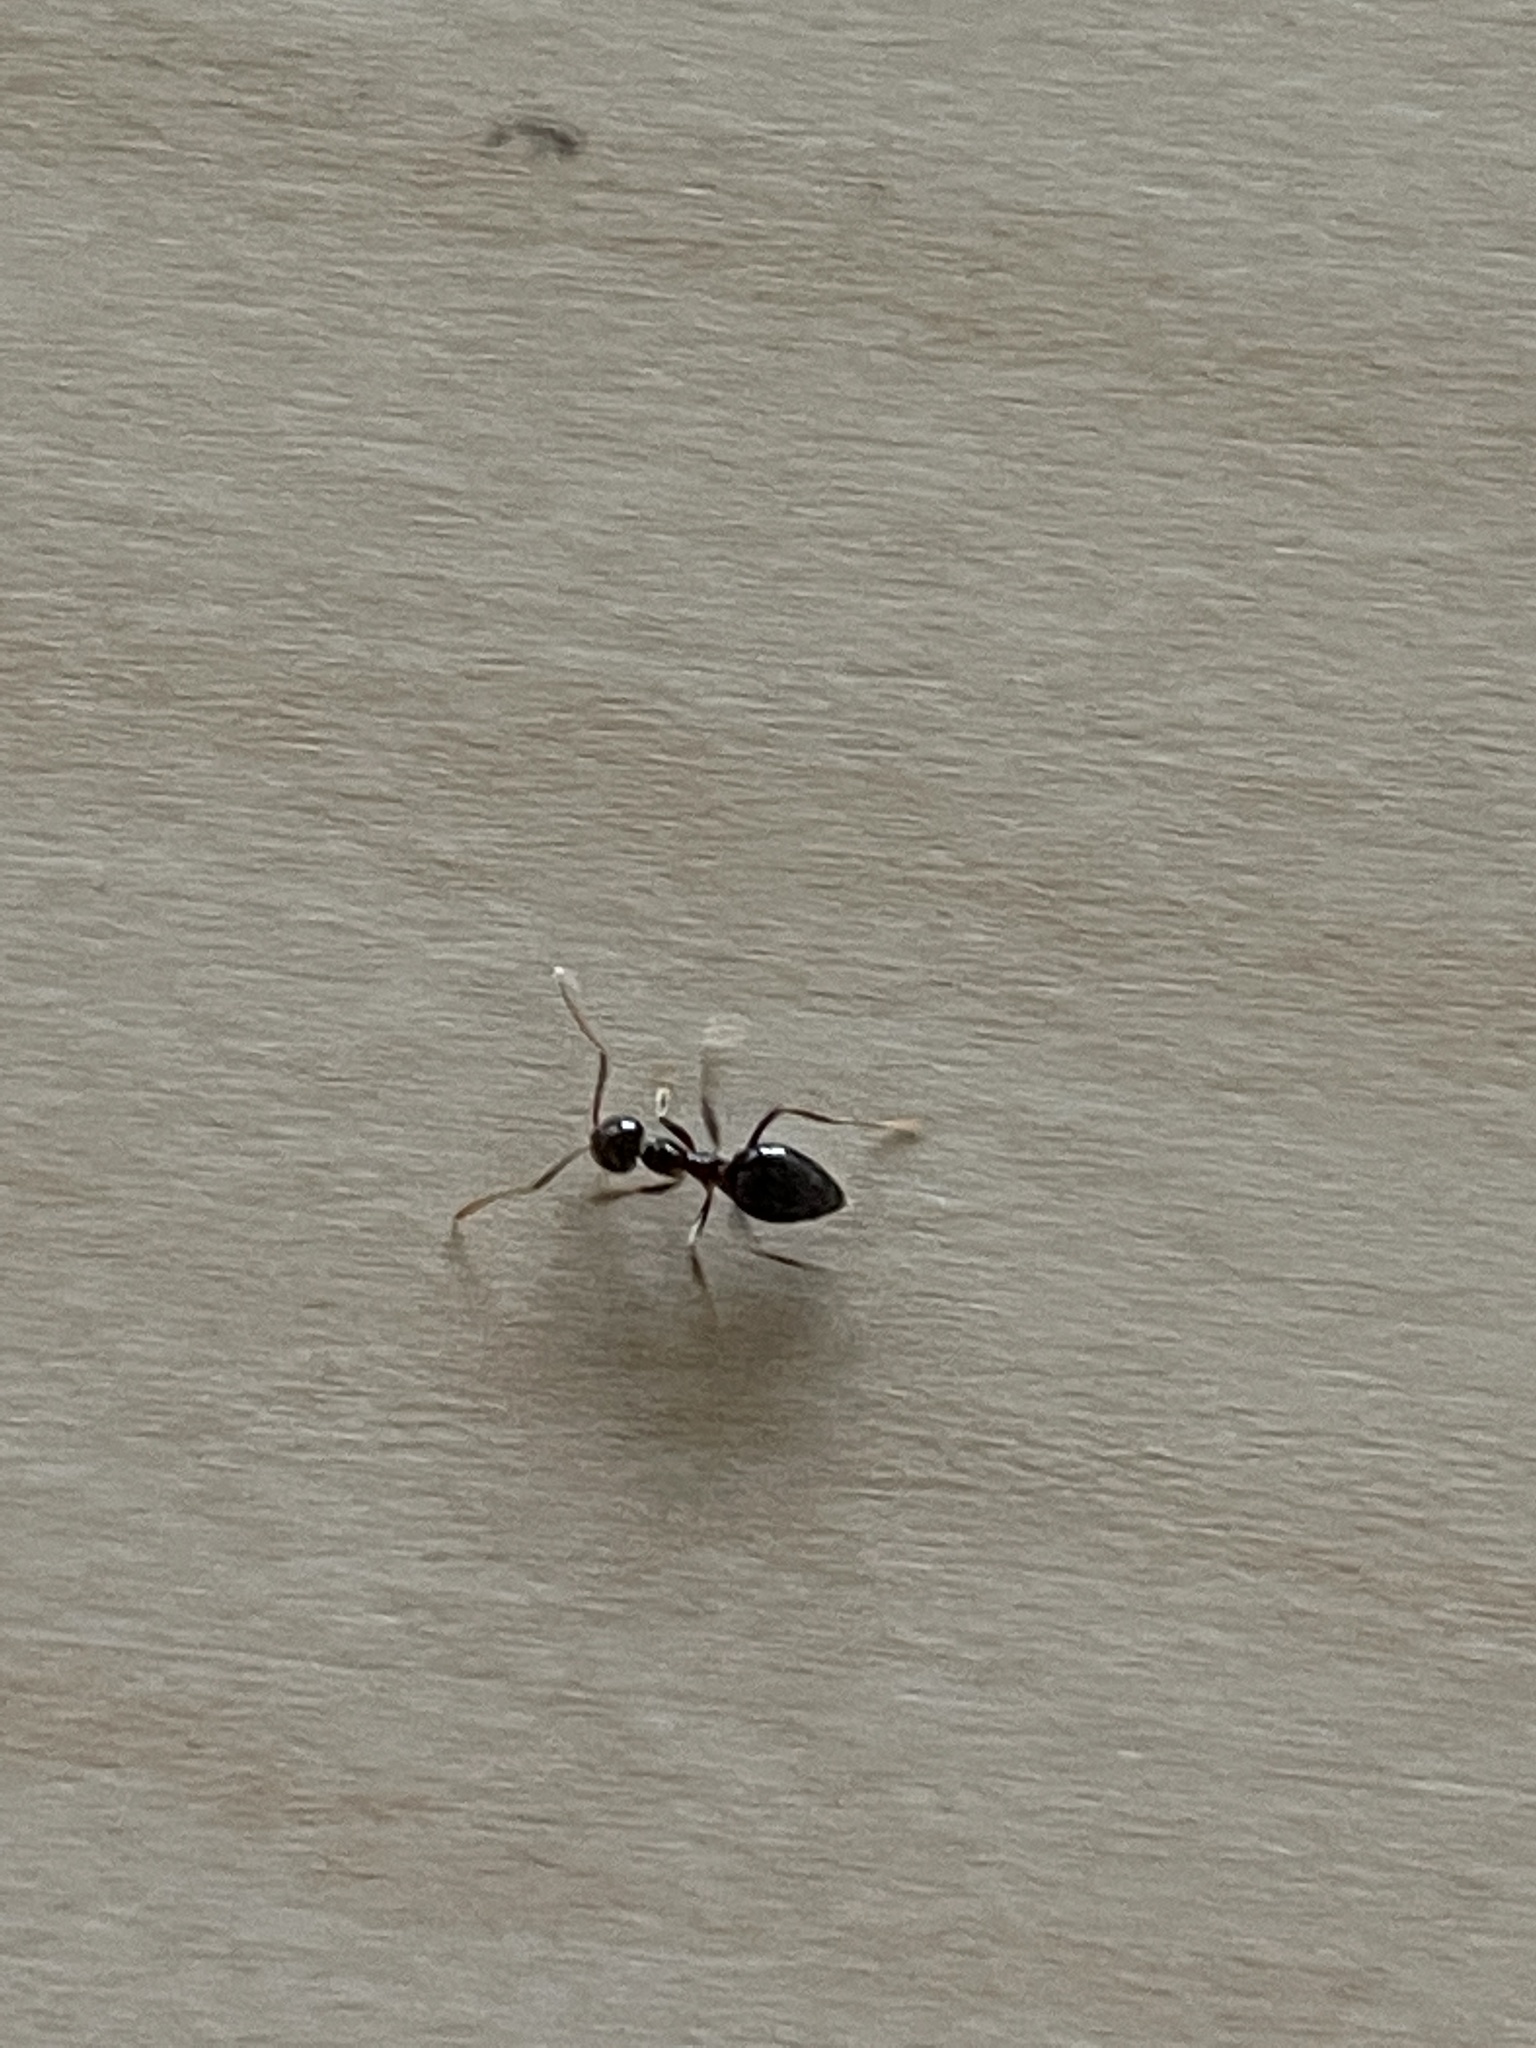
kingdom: Animalia
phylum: Arthropoda
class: Insecta
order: Hymenoptera
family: Formicidae
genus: Prenolepis
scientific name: Prenolepis imparis
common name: Small honey ant
